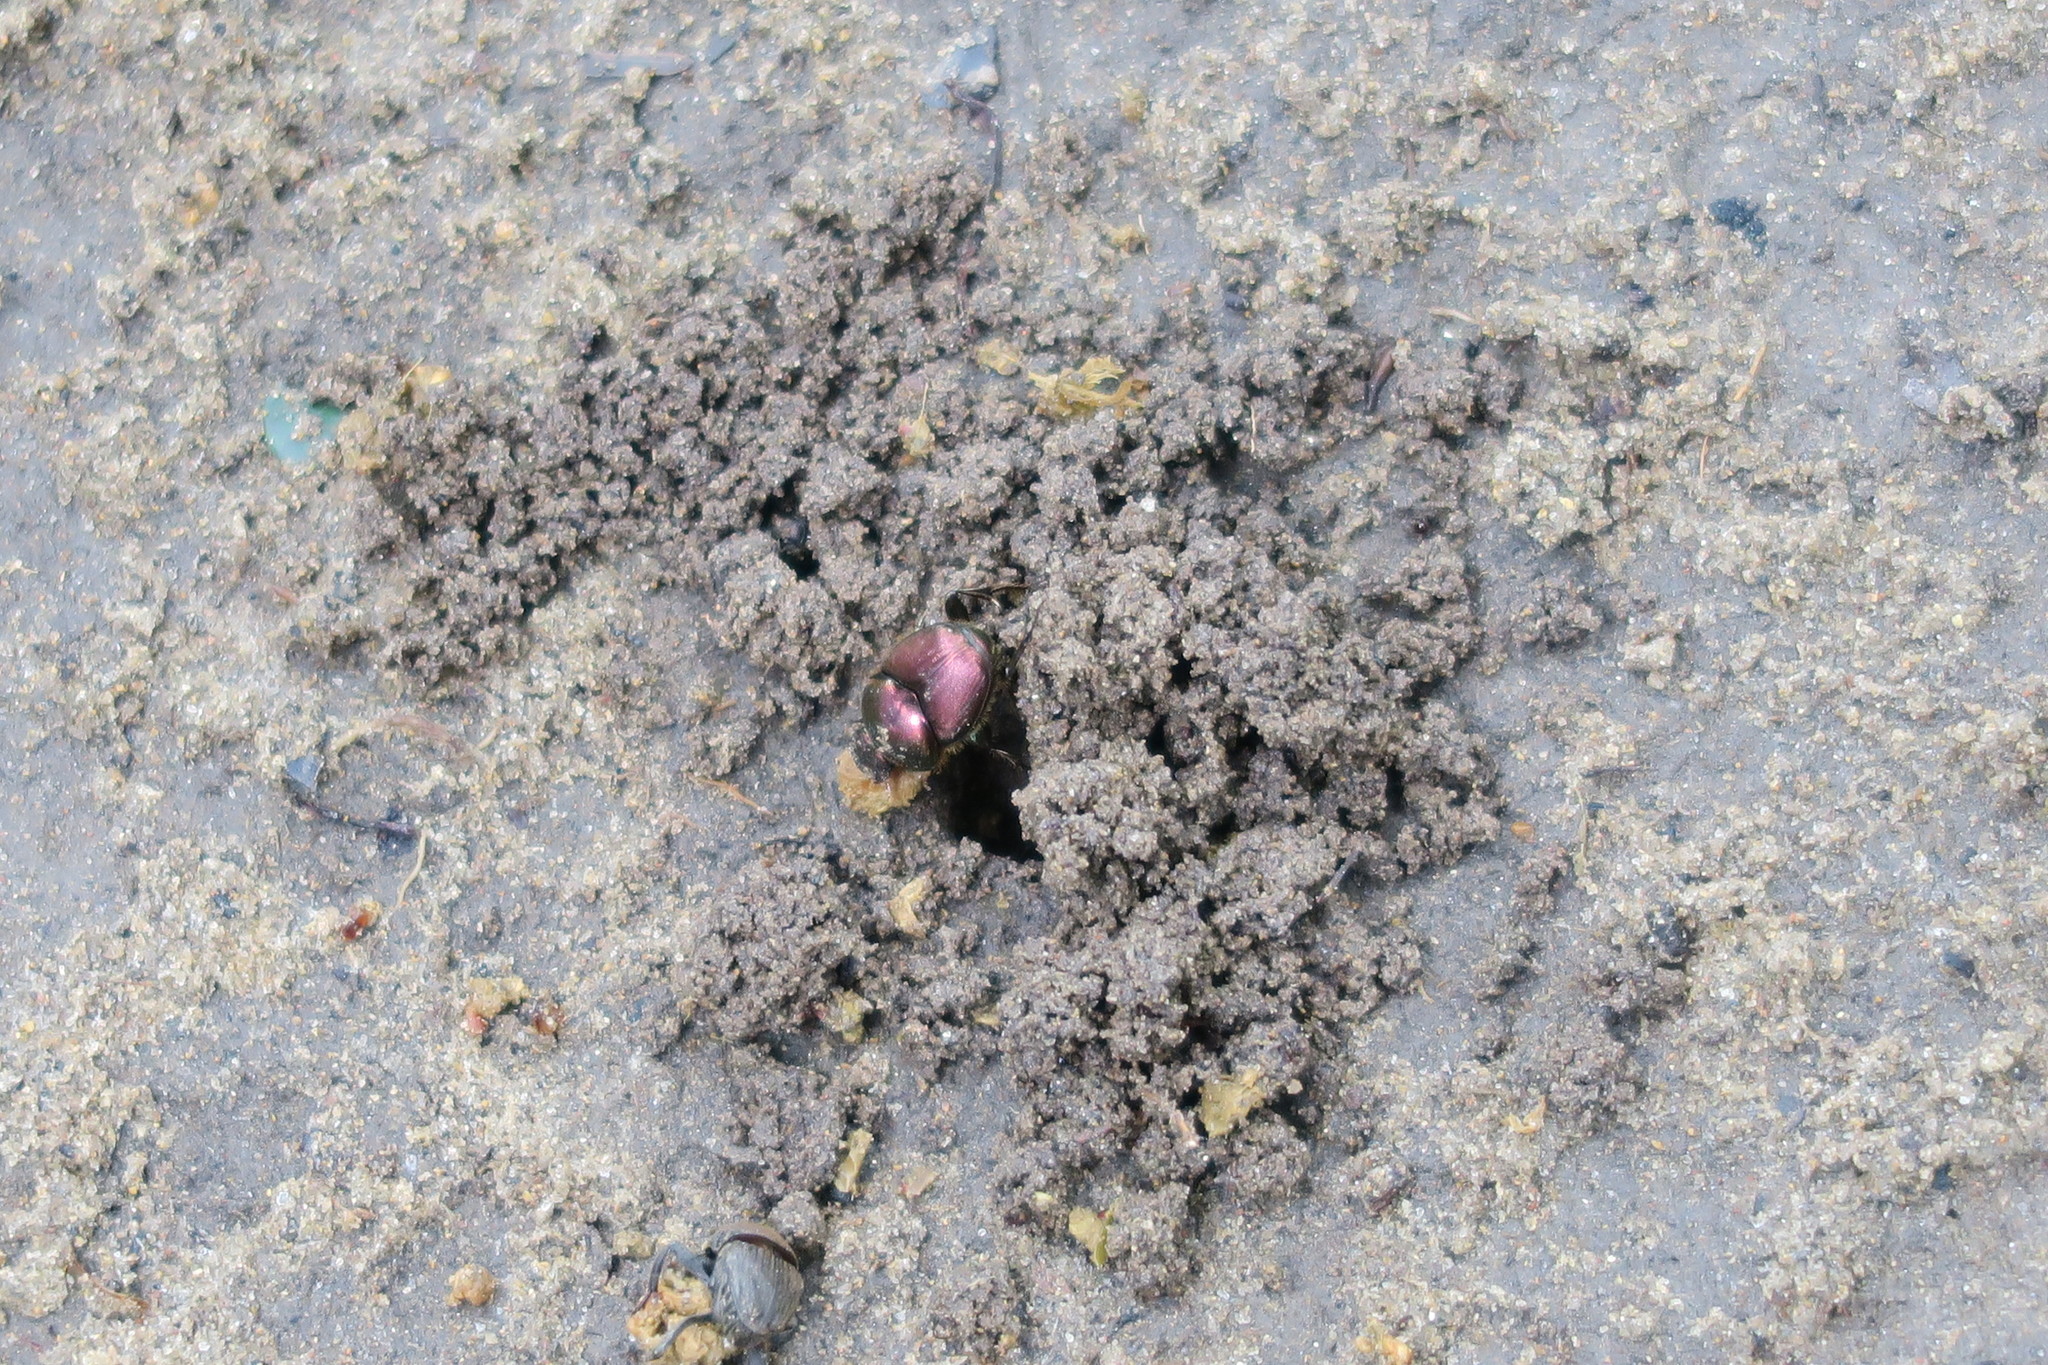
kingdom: Animalia
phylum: Arthropoda
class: Insecta
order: Coleoptera
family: Scarabaeidae
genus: Proagoderus
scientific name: Proagoderus dives
